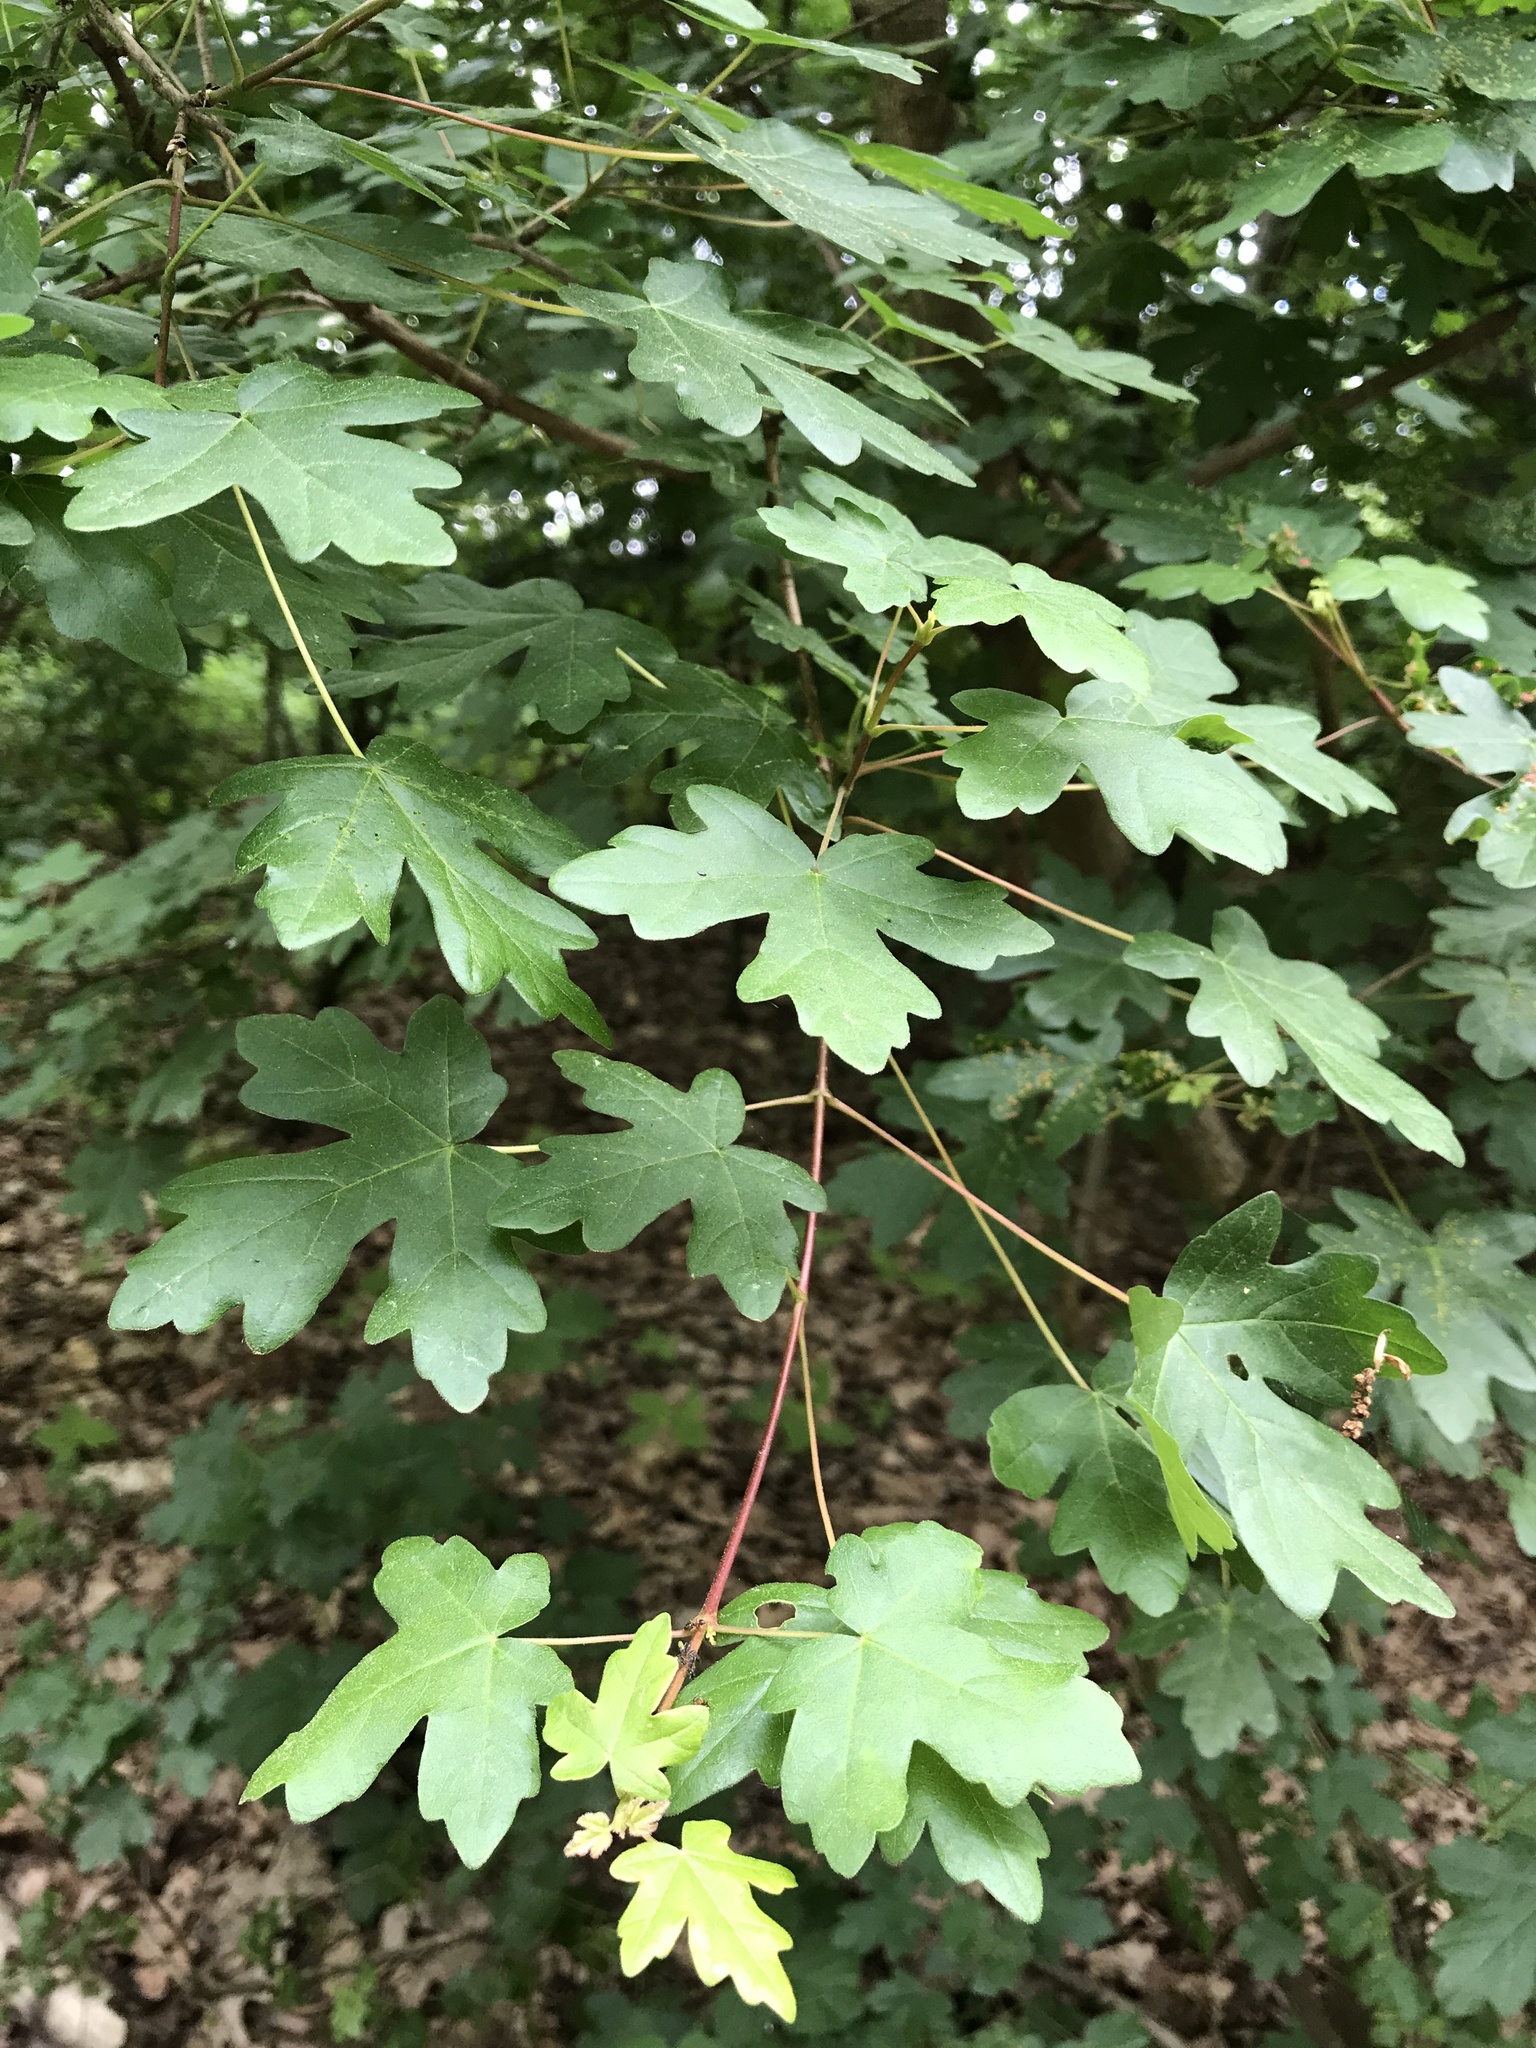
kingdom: Plantae
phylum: Tracheophyta
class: Magnoliopsida
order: Sapindales
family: Sapindaceae
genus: Acer
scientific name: Acer campestre
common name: Field maple
